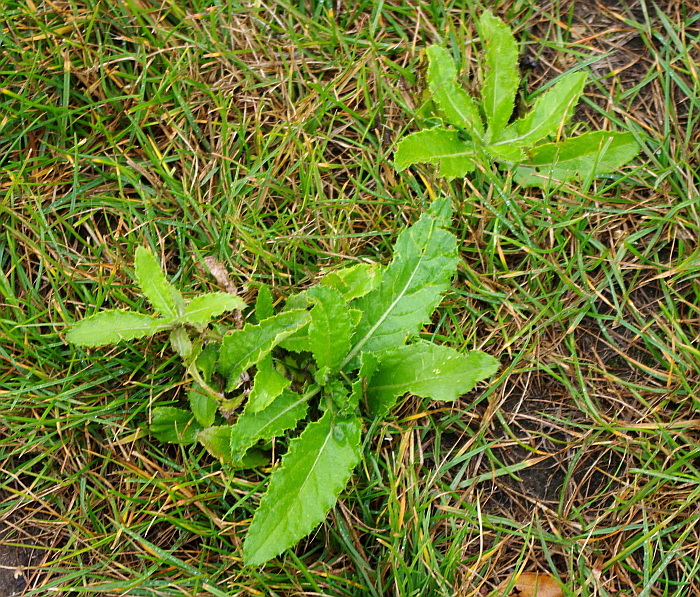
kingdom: Plantae
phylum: Tracheophyta
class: Magnoliopsida
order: Asterales
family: Asteraceae
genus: Cirsium
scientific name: Cirsium arvense
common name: Creeping thistle
